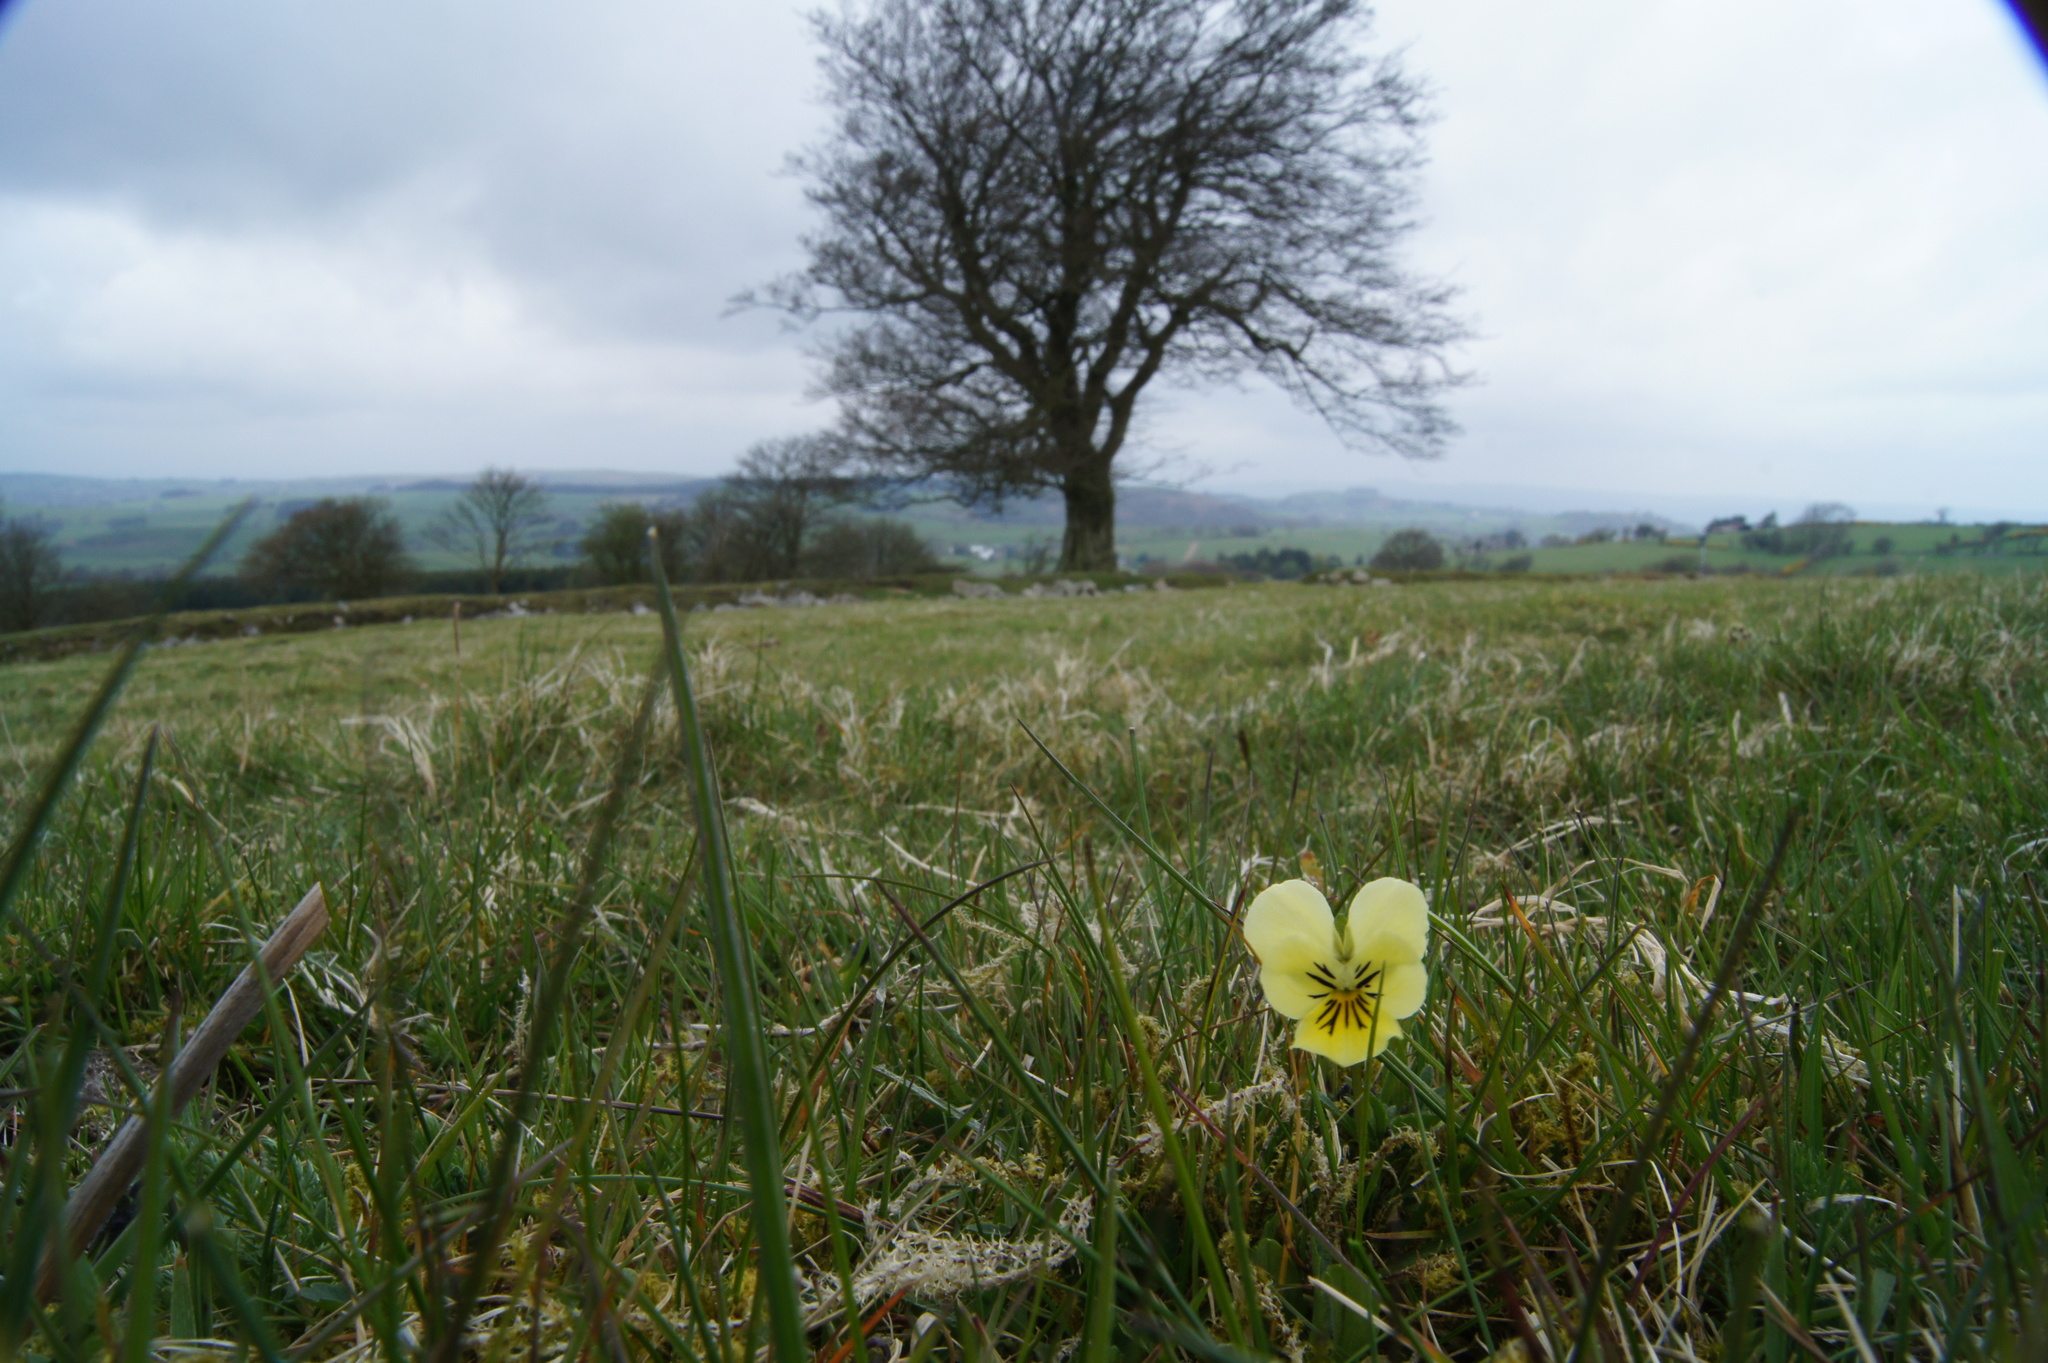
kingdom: Plantae
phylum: Tracheophyta
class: Magnoliopsida
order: Malpighiales
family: Violaceae
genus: Viola
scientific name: Viola lutea
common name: Mountain pansy
